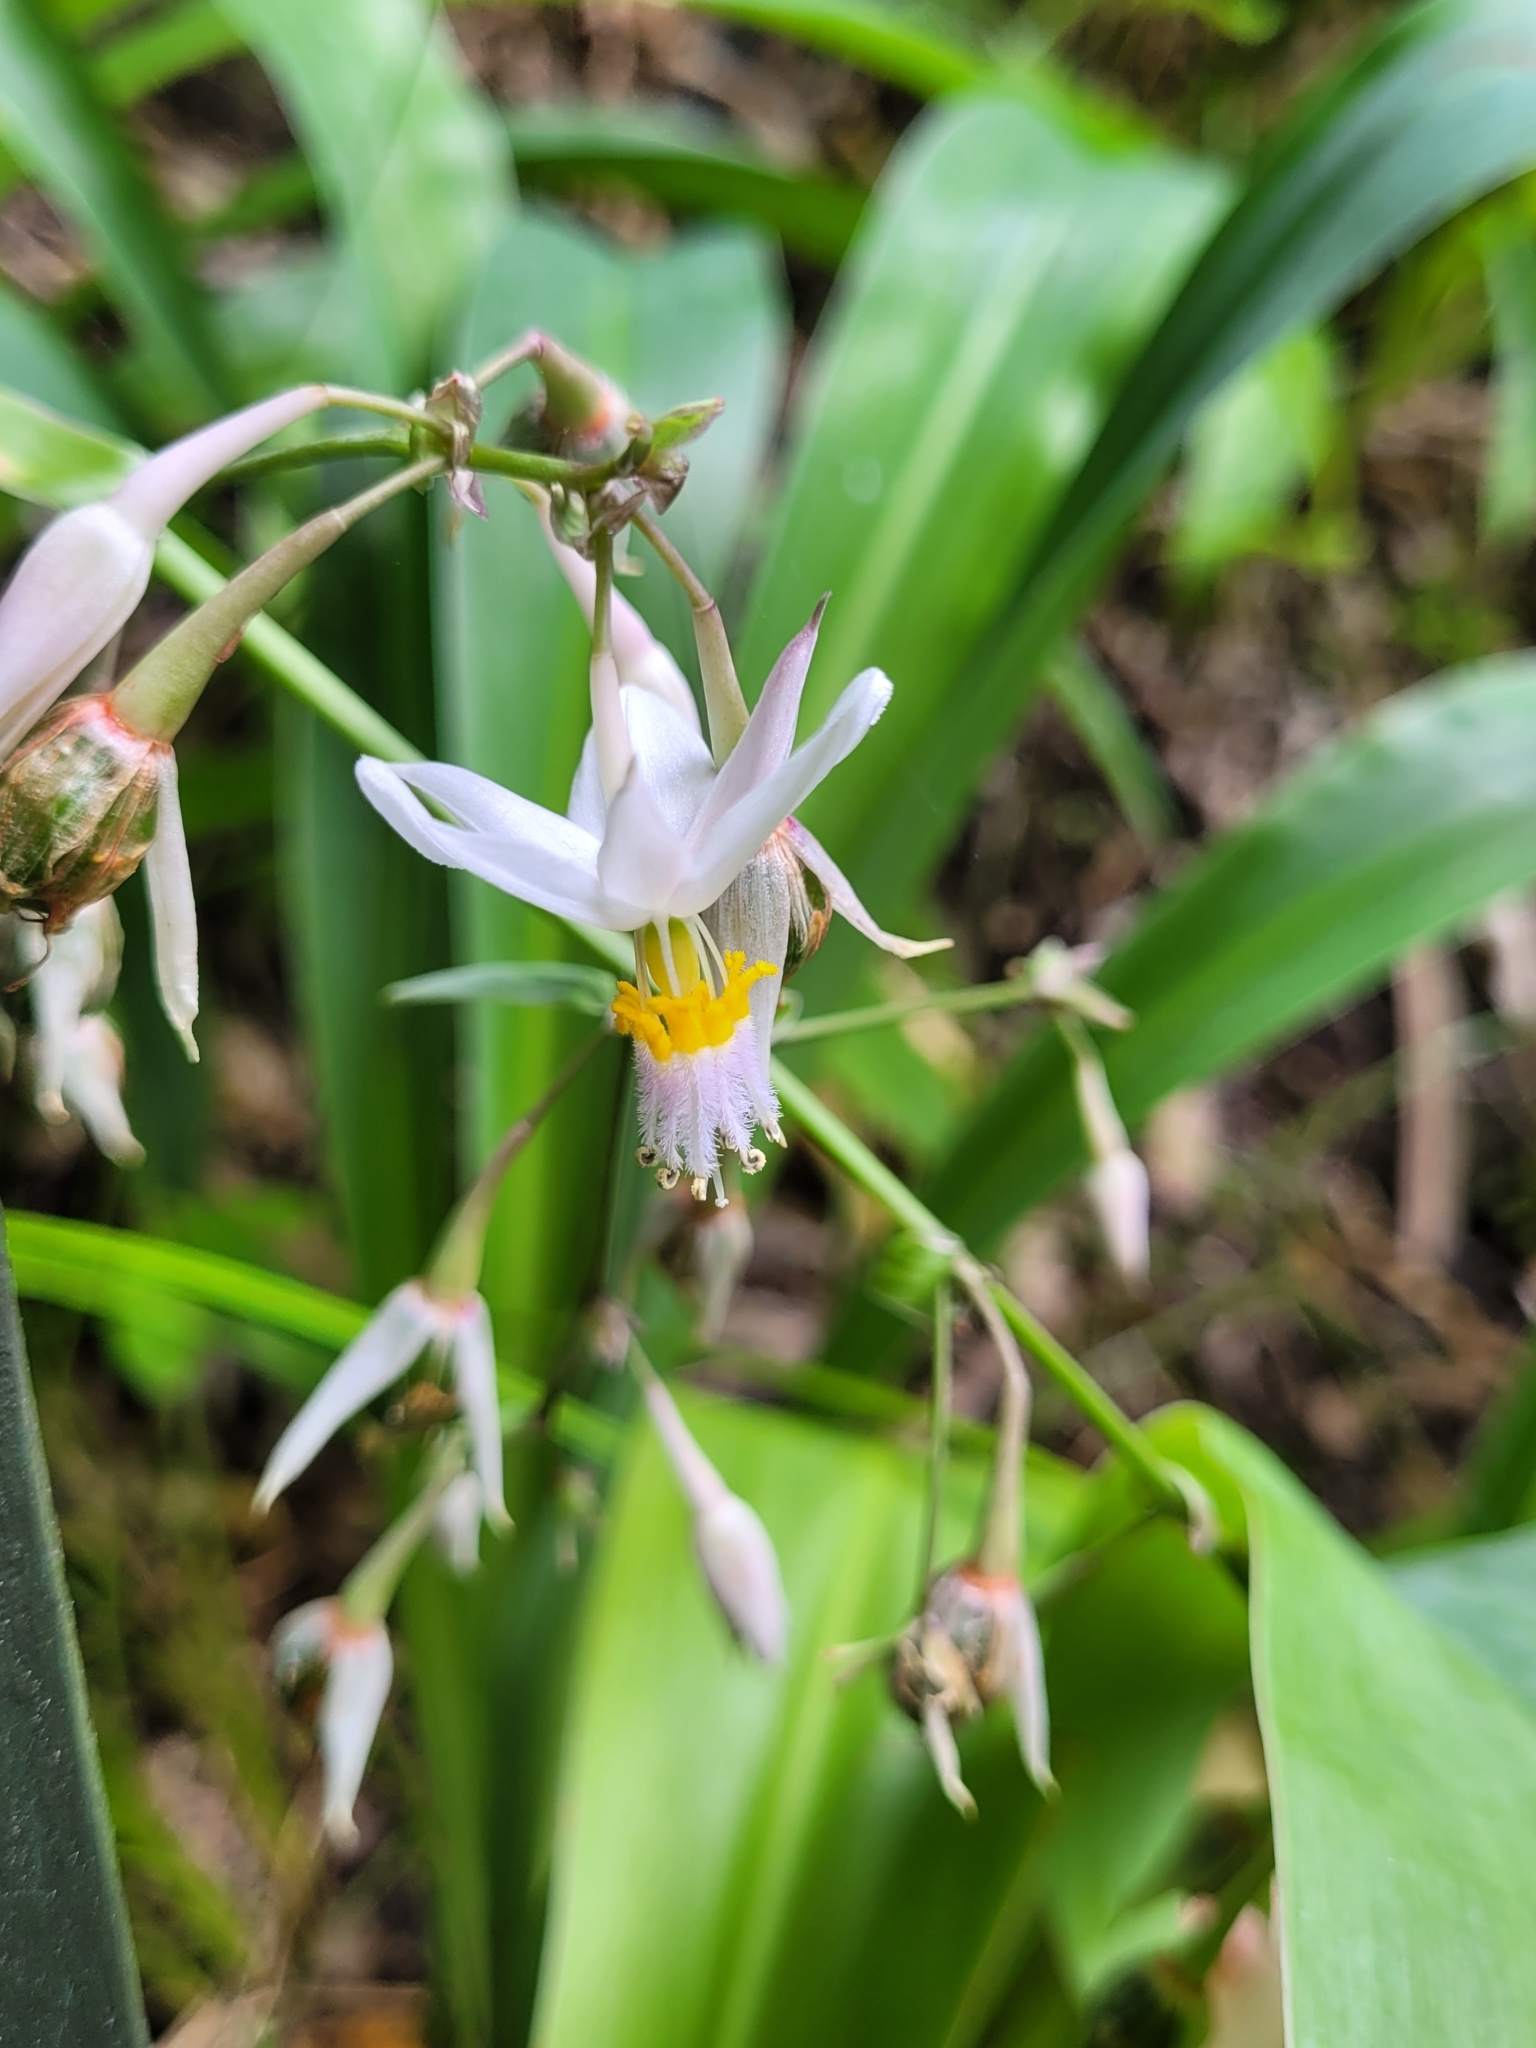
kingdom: Plantae
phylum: Tracheophyta
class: Liliopsida
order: Asparagales
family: Asparagaceae
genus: Arthropodium
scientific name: Arthropodium cirratum
